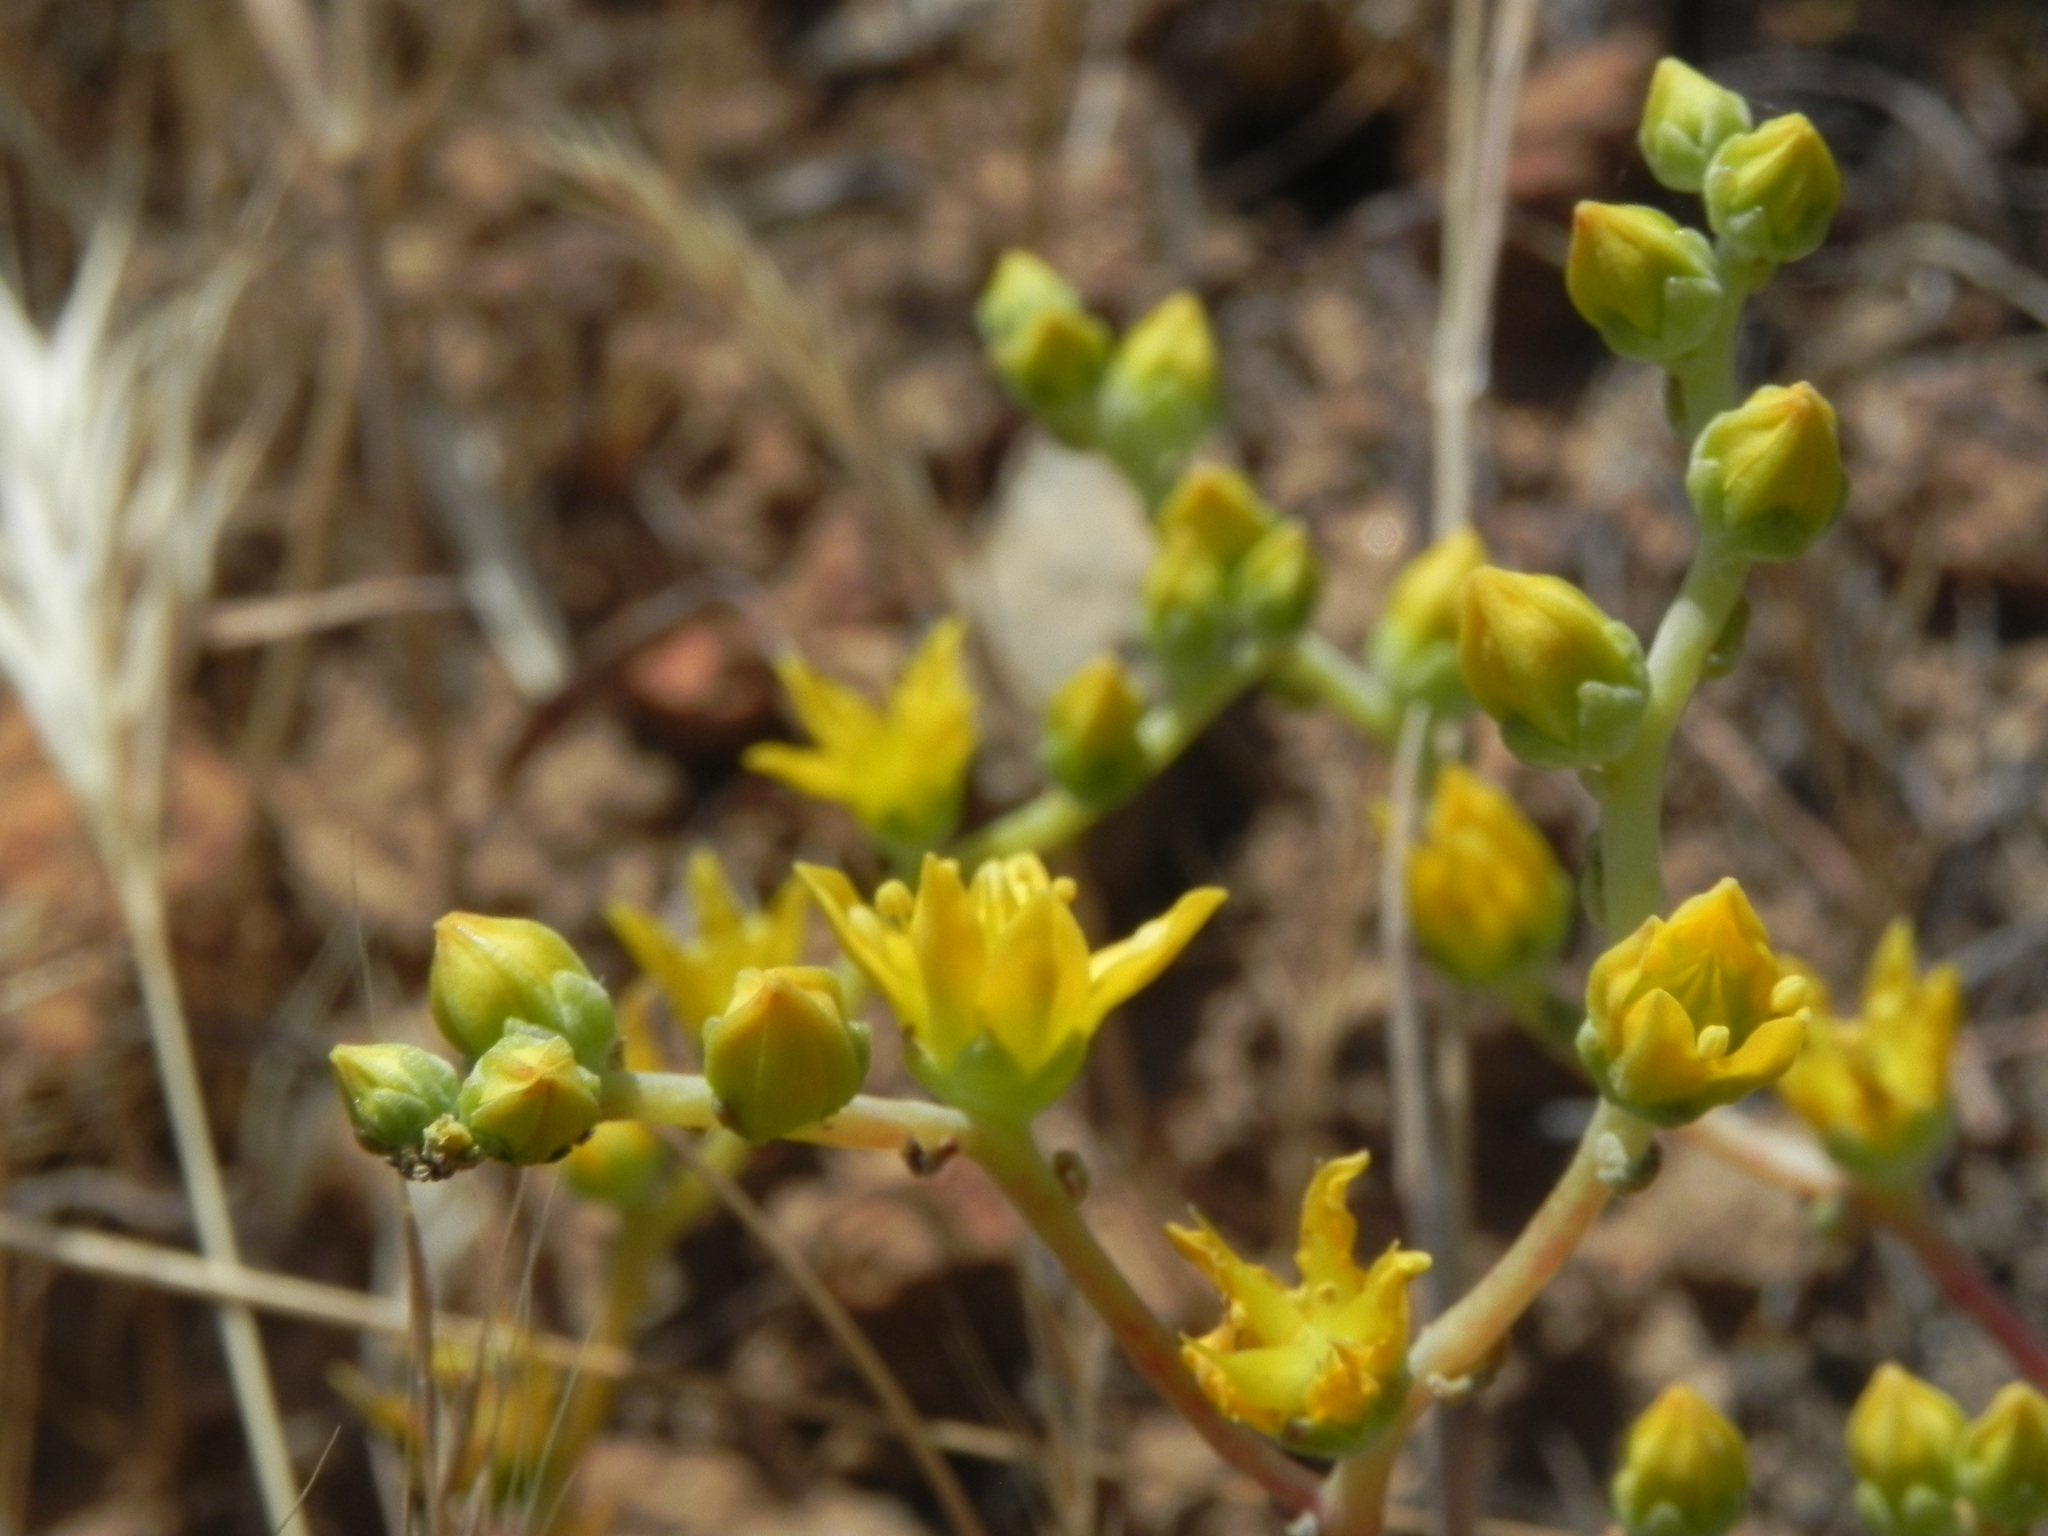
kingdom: Plantae
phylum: Tracheophyta
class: Magnoliopsida
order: Saxifragales
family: Crassulaceae
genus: Dudleya
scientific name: Dudleya variegata
